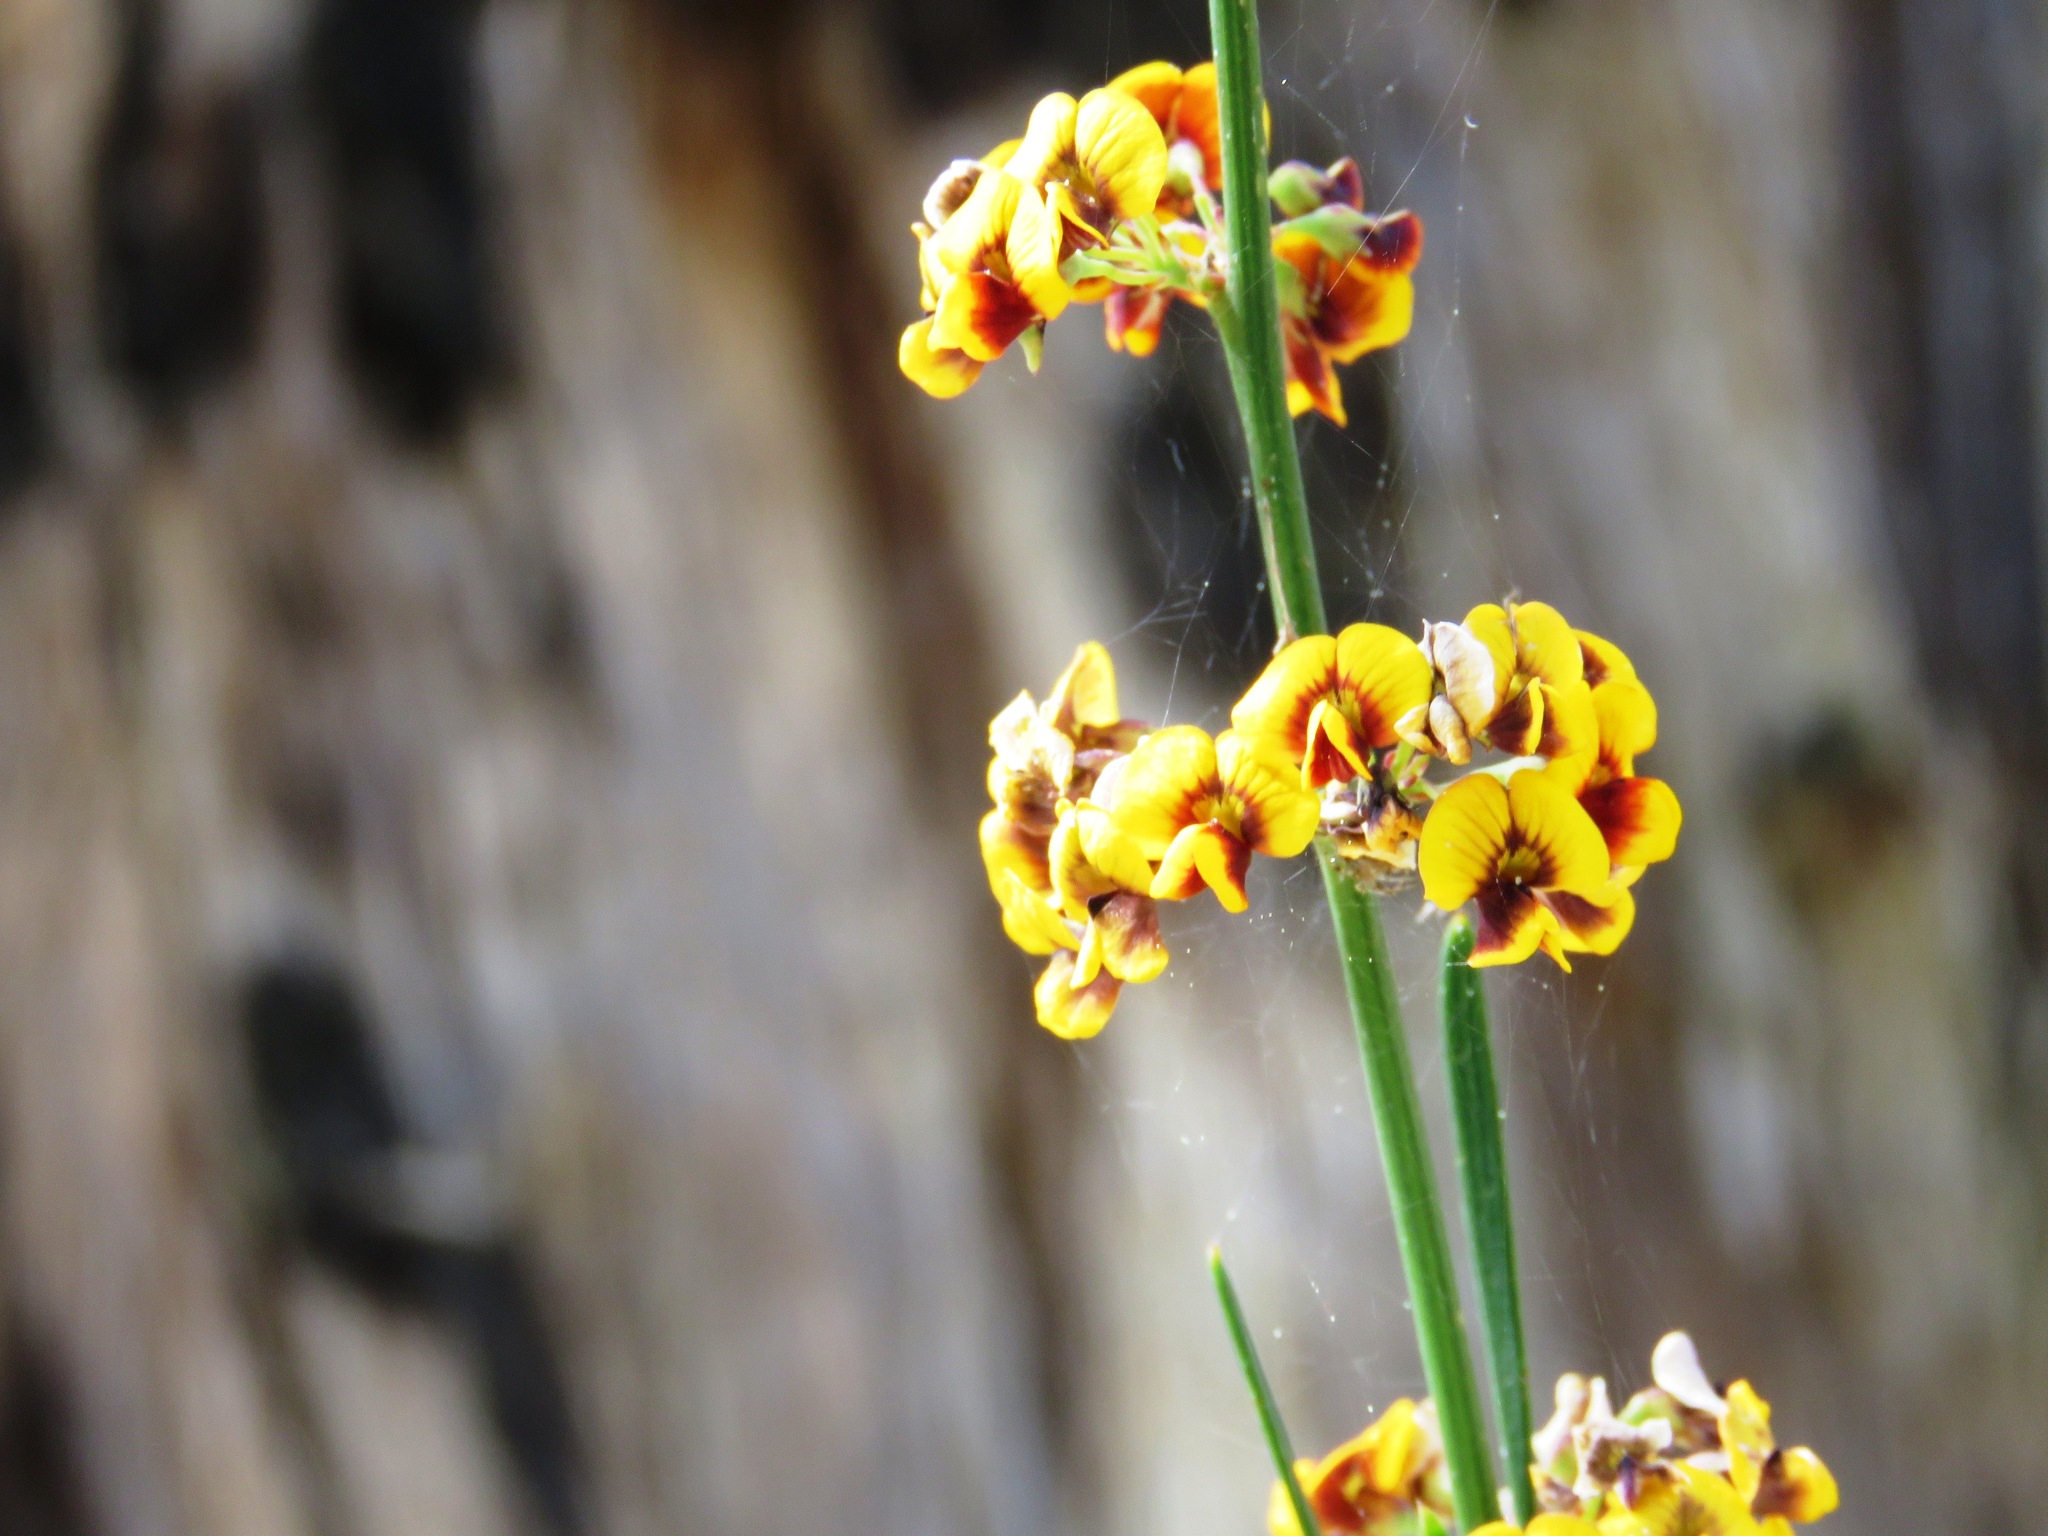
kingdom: Plantae
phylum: Tracheophyta
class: Magnoliopsida
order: Fabales
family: Fabaceae
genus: Daviesia
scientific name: Daviesia leptophylla
